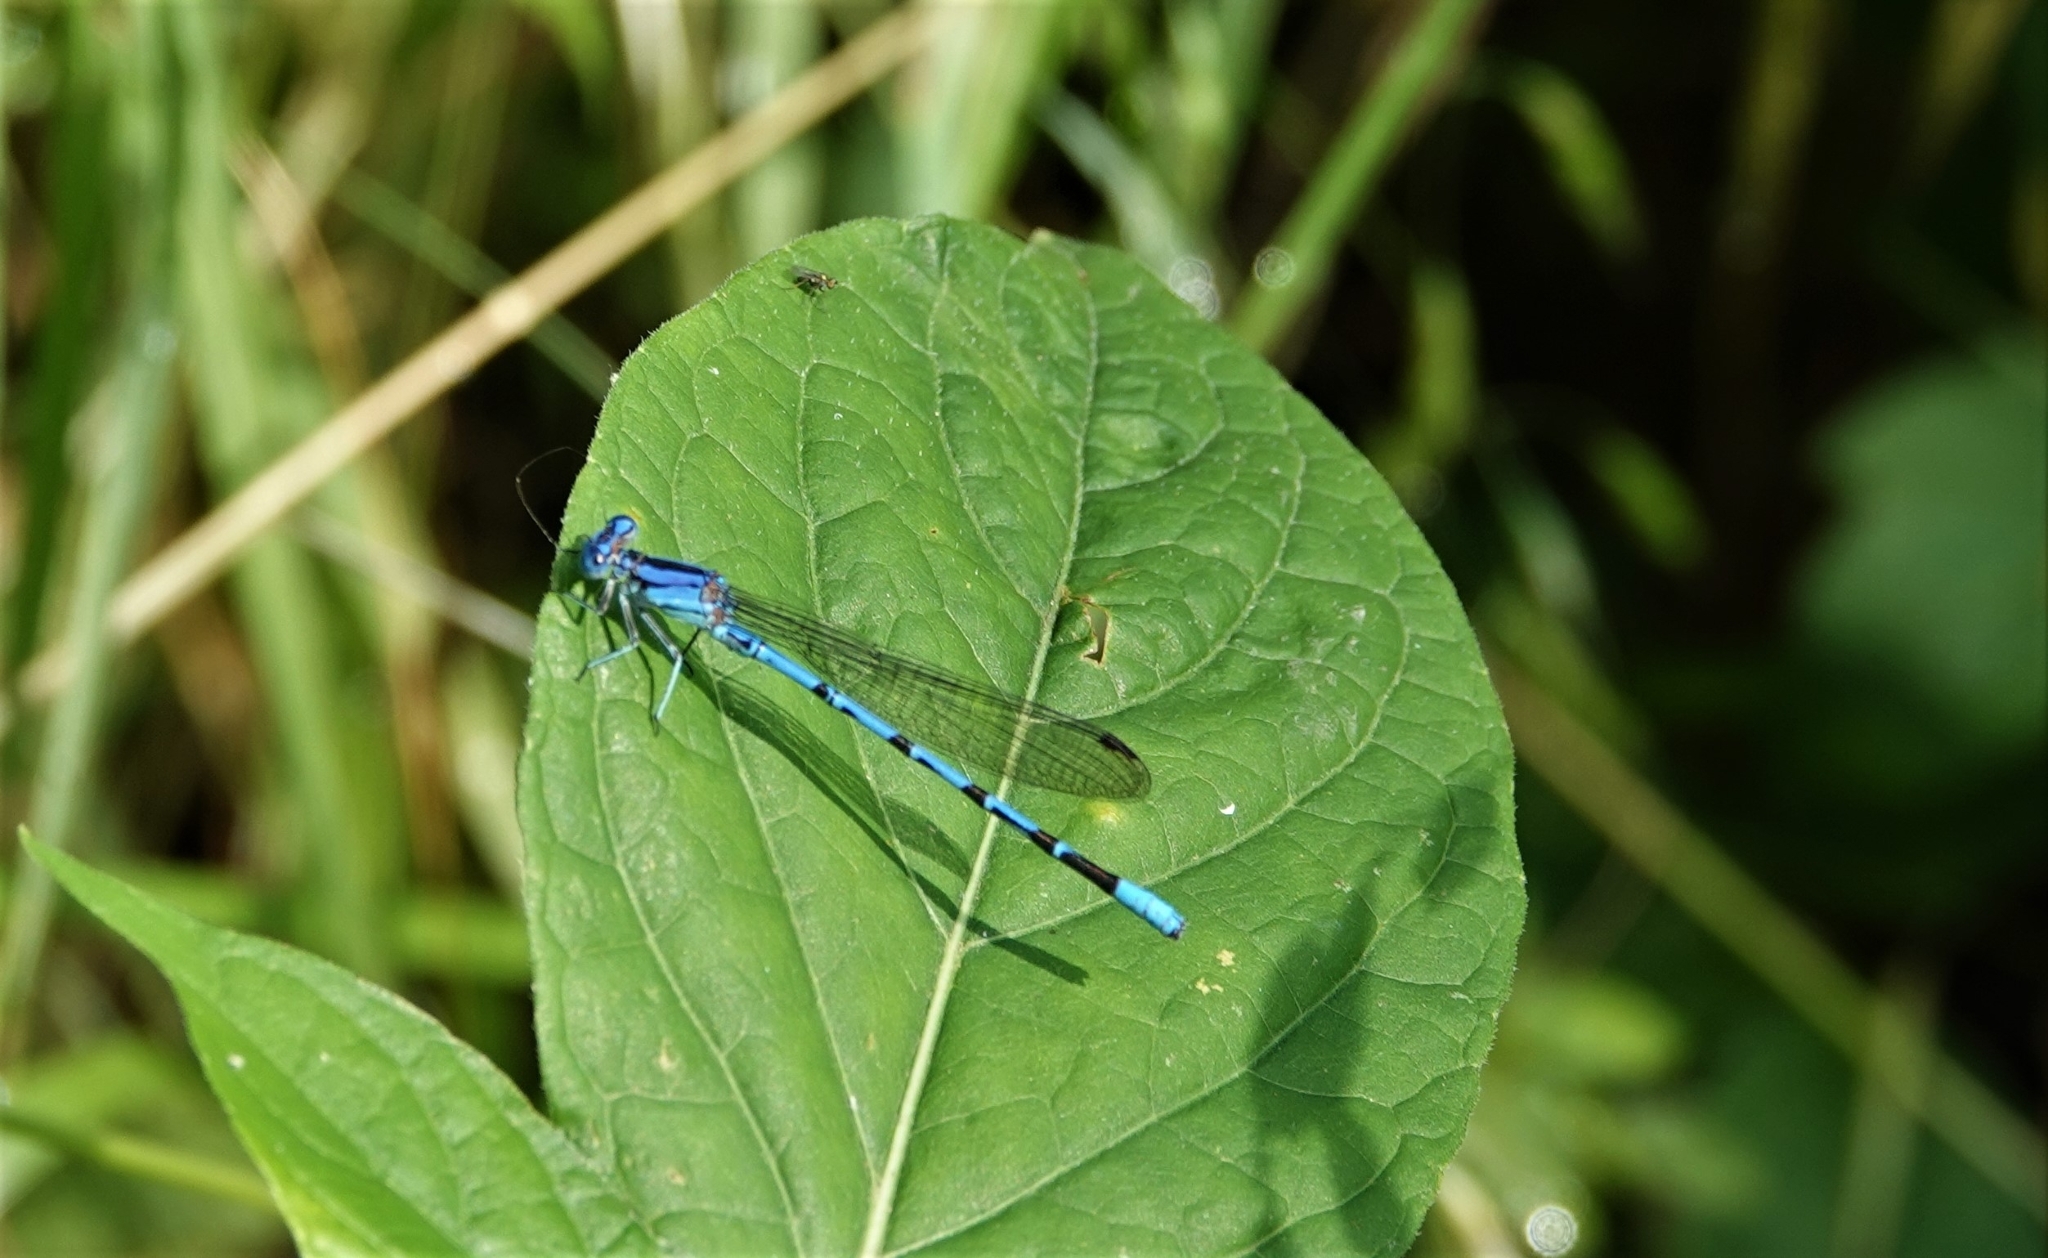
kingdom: Animalia
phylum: Arthropoda
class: Insecta
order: Odonata
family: Coenagrionidae
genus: Argia
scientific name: Argia funebris
